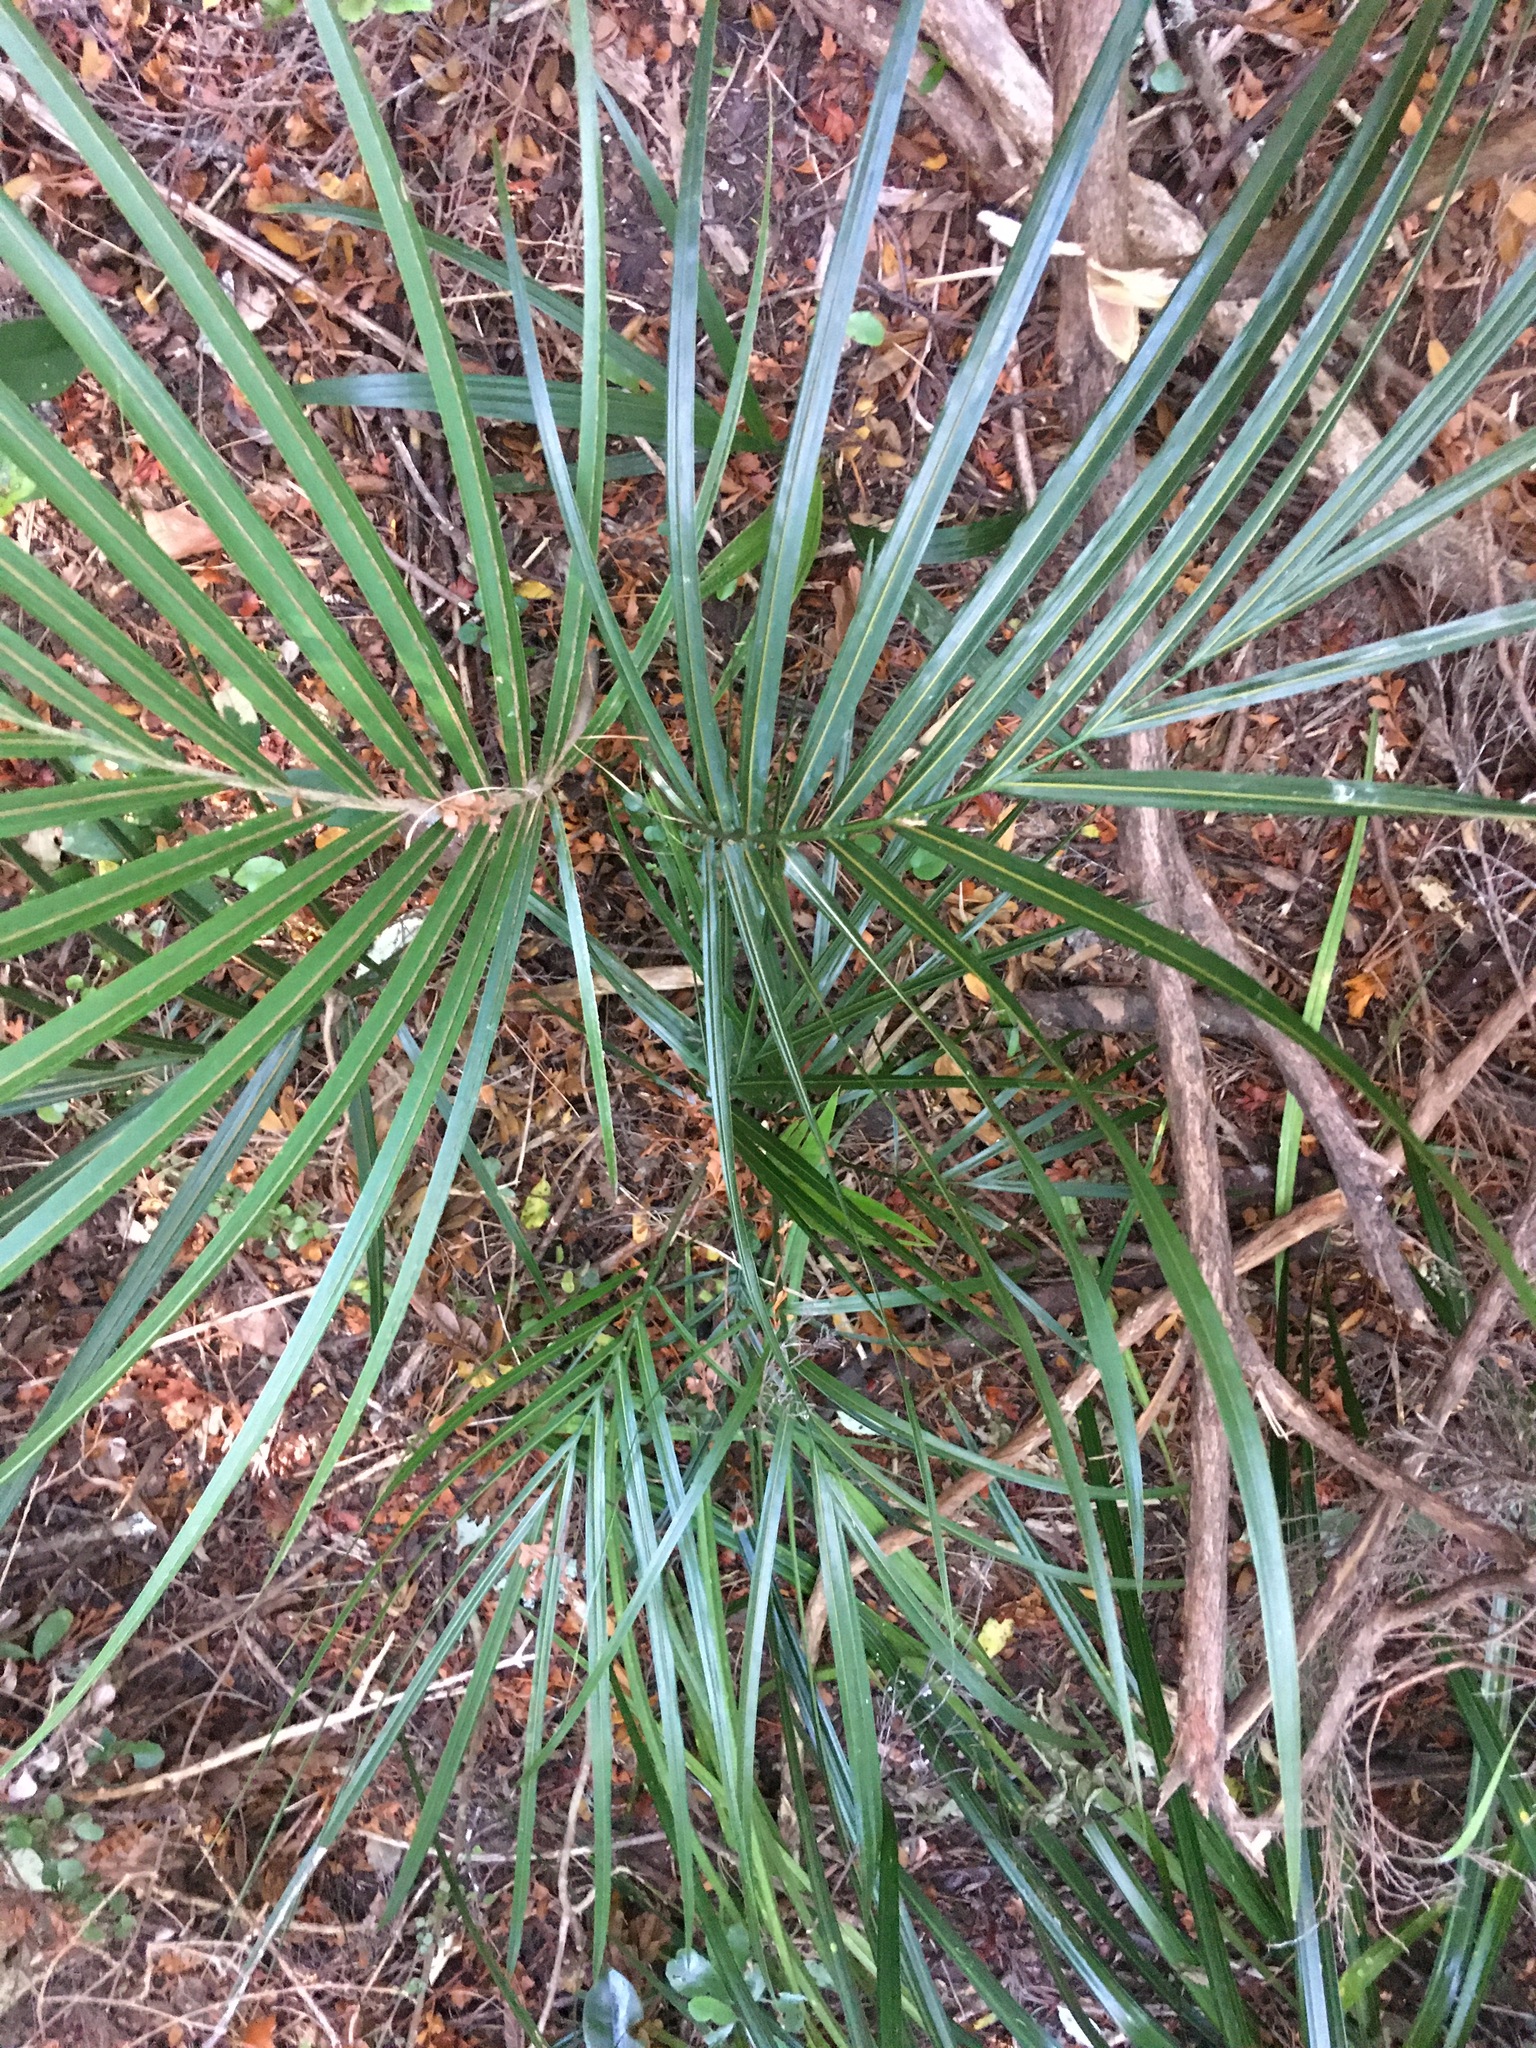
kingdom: Plantae
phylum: Tracheophyta
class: Liliopsida
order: Arecales
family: Arecaceae
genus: Rhopalostylis
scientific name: Rhopalostylis sapida
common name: Feather-duster palm
